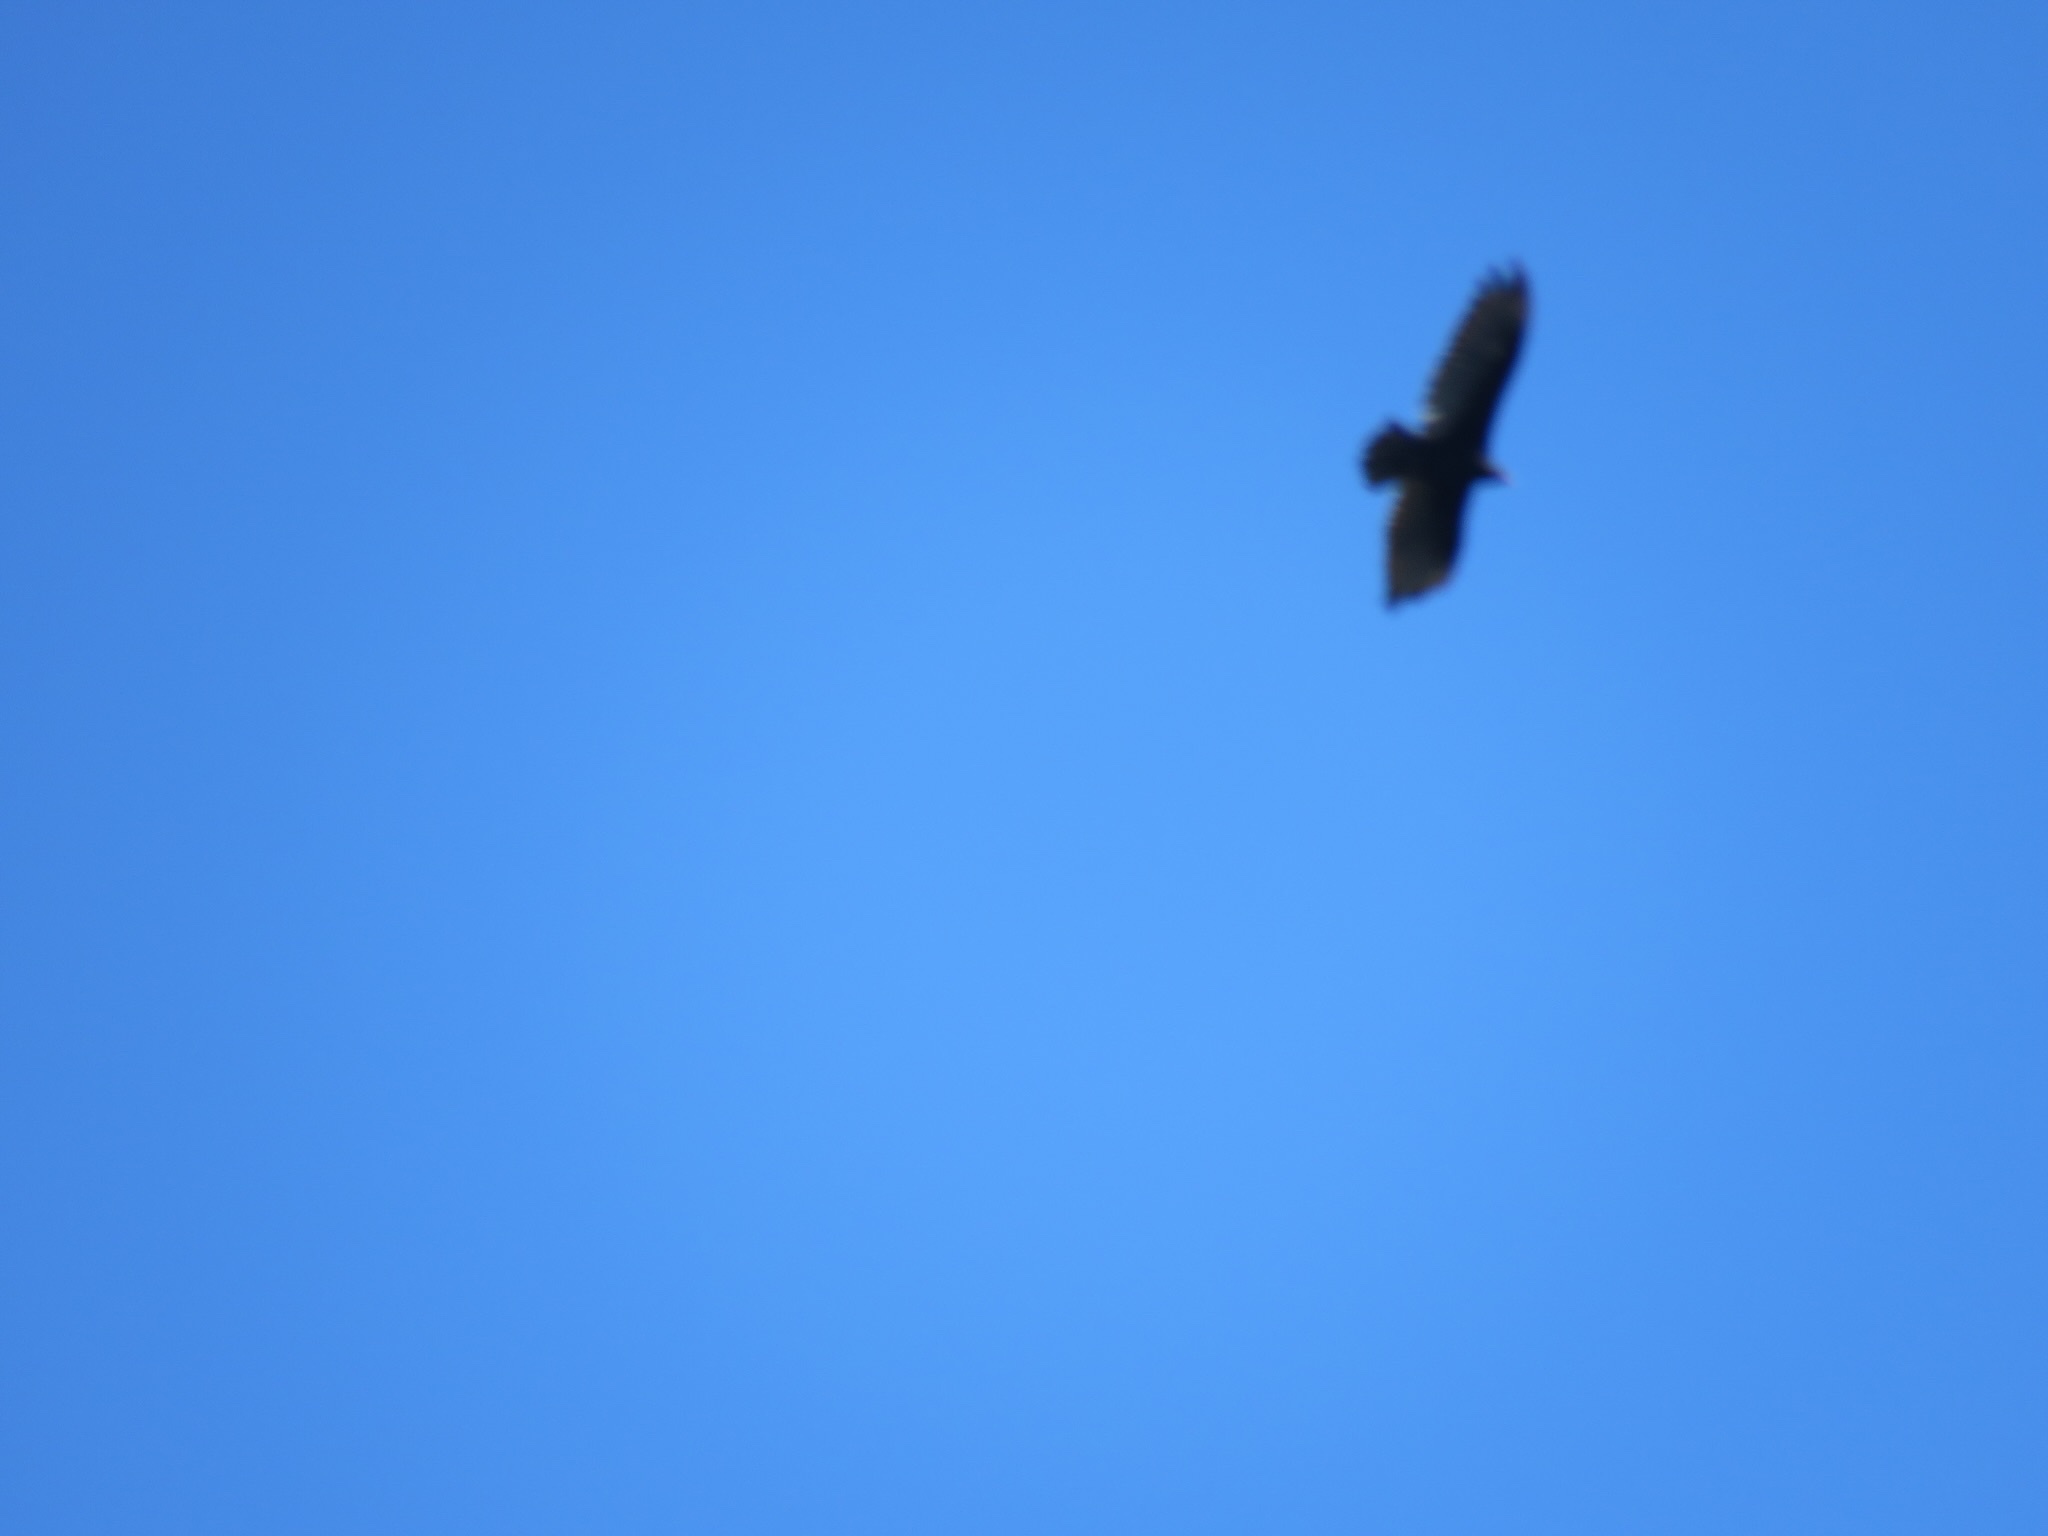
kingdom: Animalia
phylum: Chordata
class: Aves
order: Accipitriformes
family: Cathartidae
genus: Cathartes
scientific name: Cathartes aura
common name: Turkey vulture
